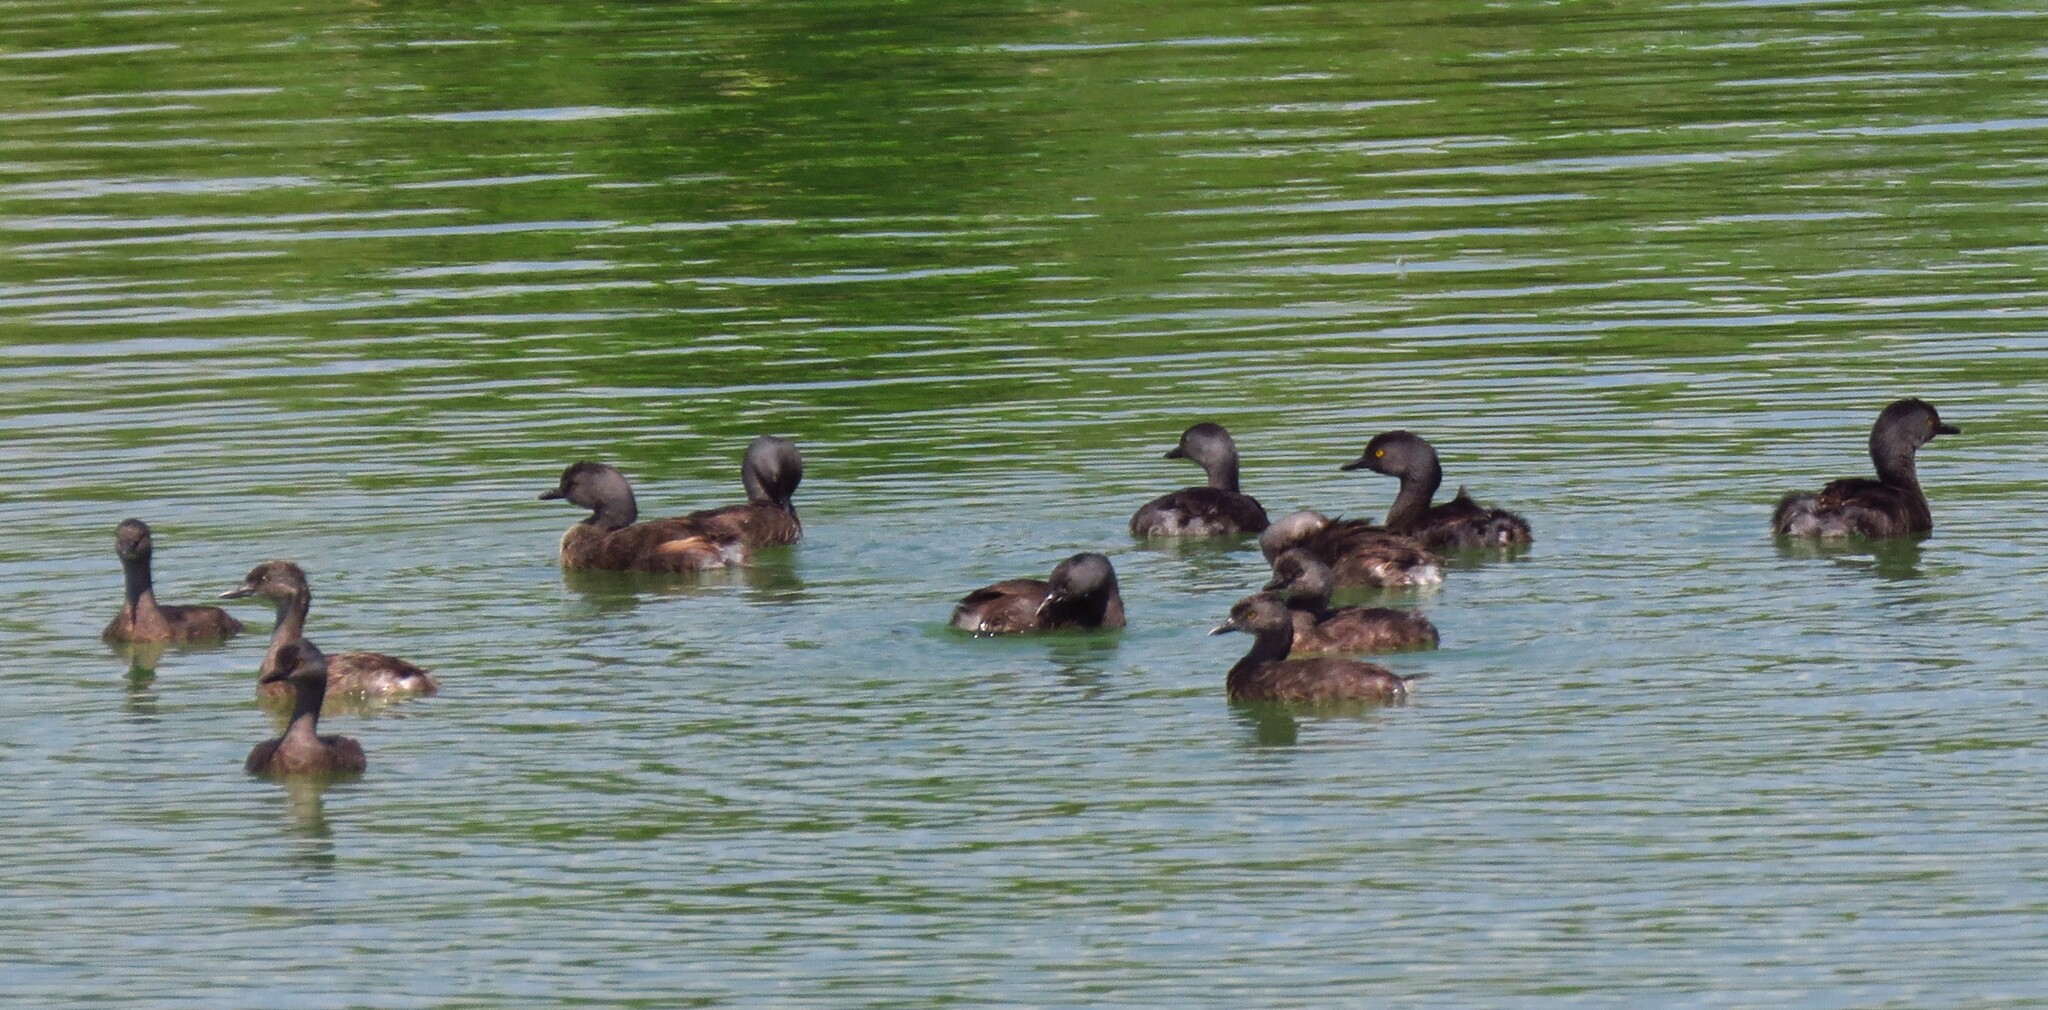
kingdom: Animalia
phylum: Chordata
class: Aves
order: Podicipediformes
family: Podicipedidae
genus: Tachybaptus
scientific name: Tachybaptus dominicus
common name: Least grebe
